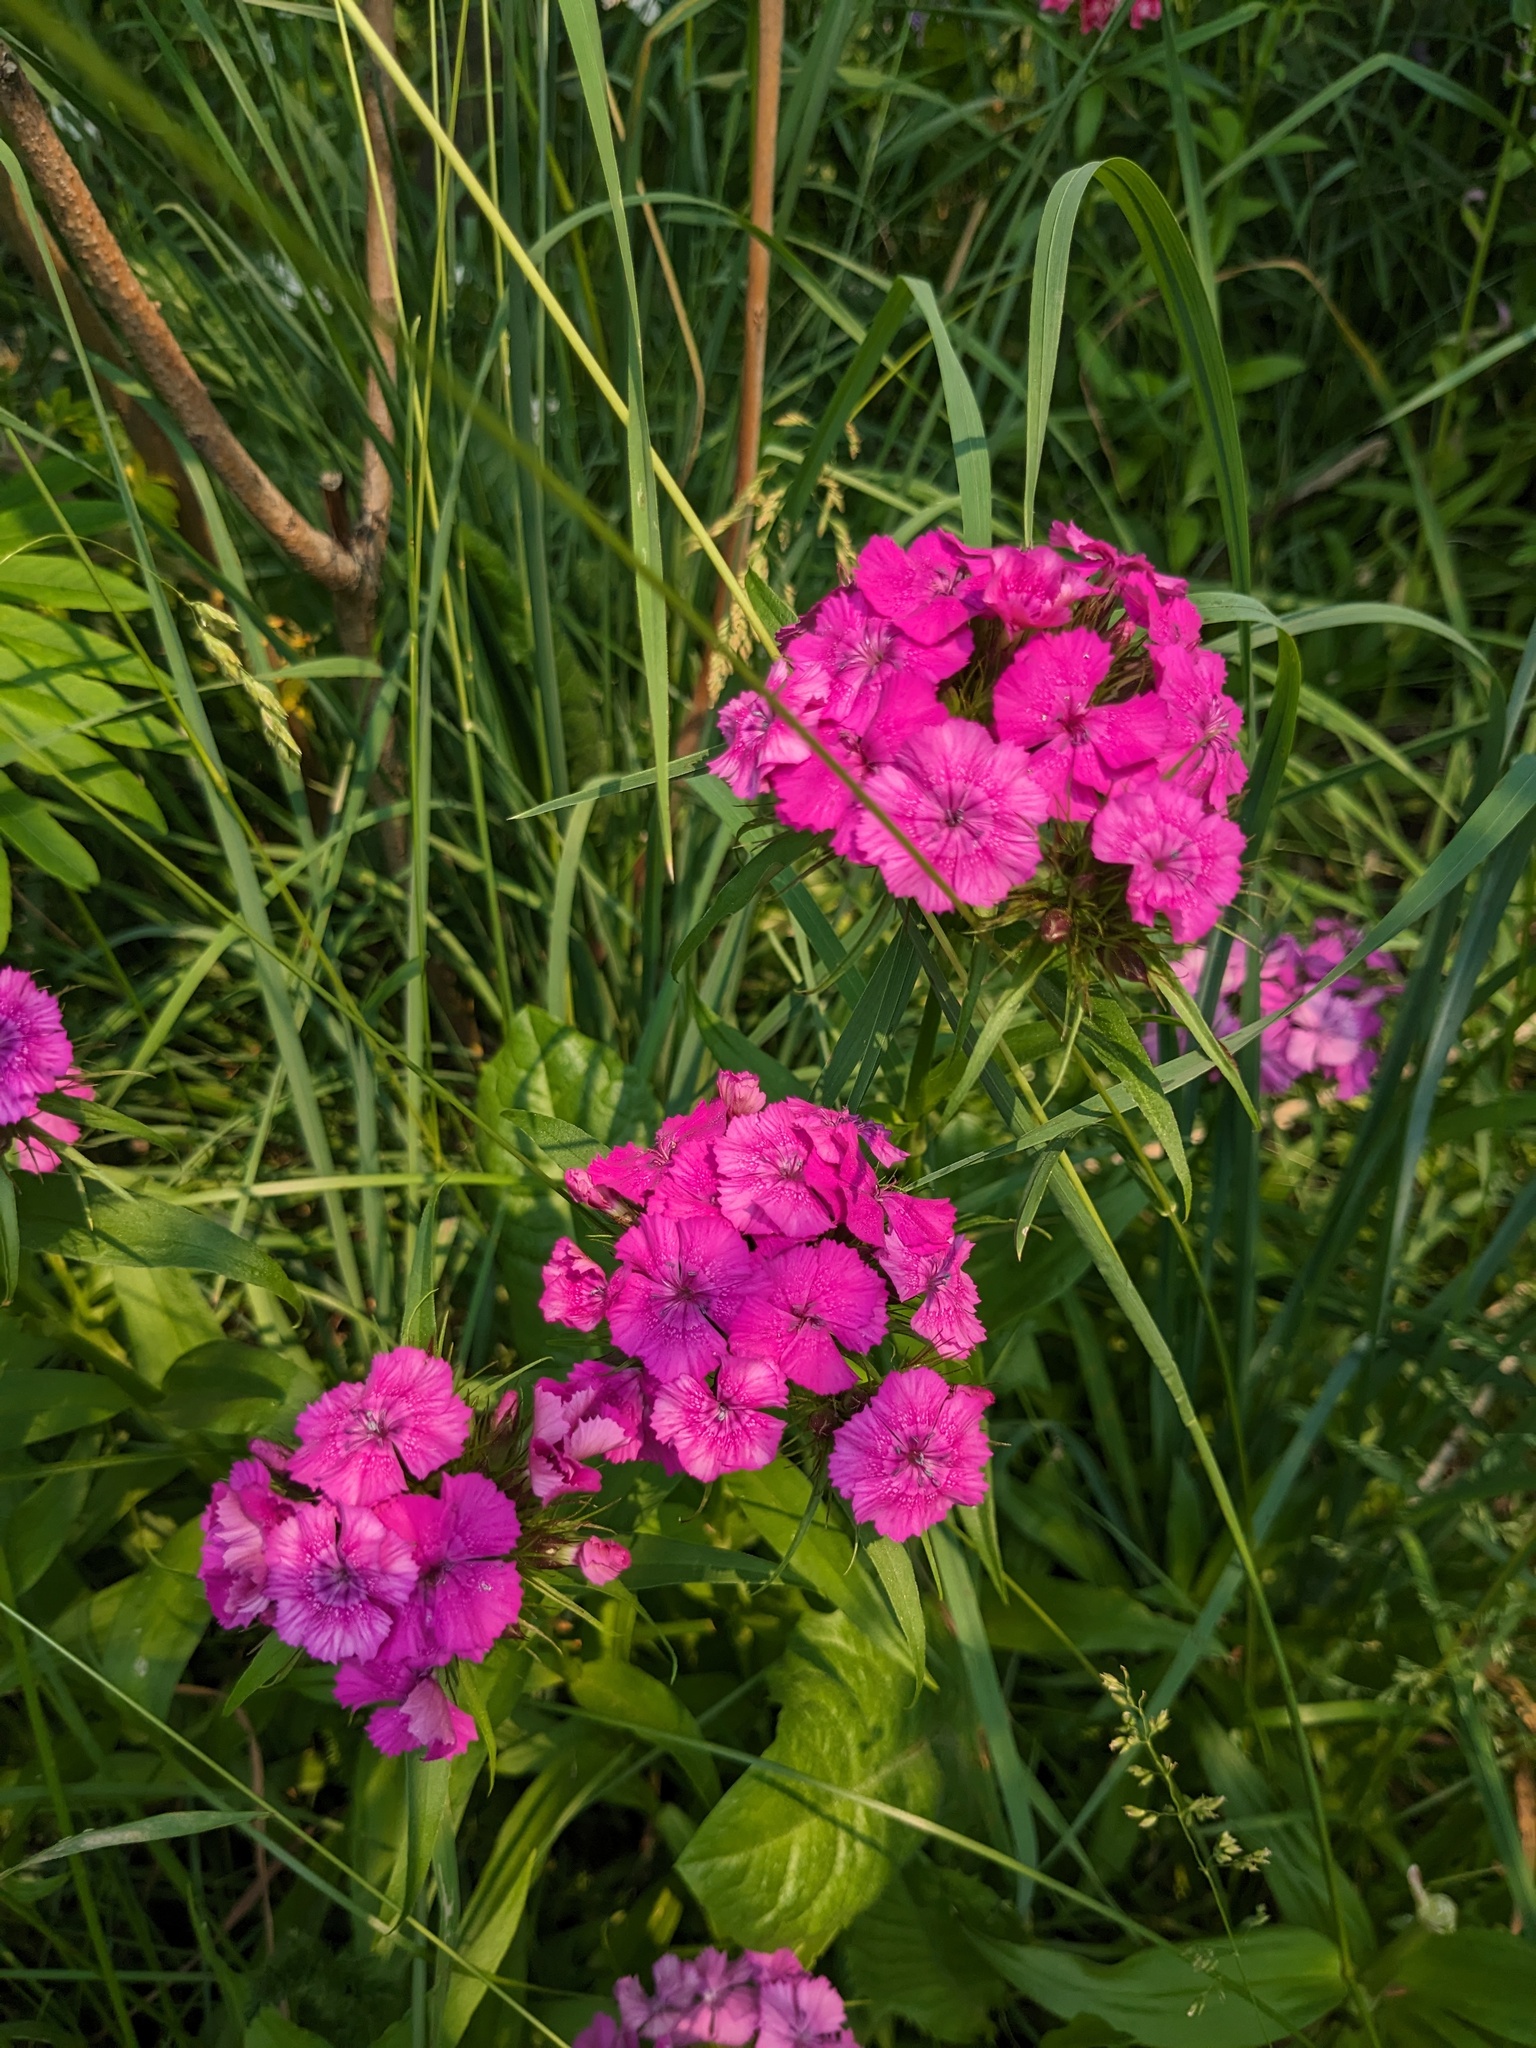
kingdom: Plantae
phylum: Tracheophyta
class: Magnoliopsida
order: Caryophyllales
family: Caryophyllaceae
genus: Dianthus
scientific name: Dianthus barbatus
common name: Sweet-william
